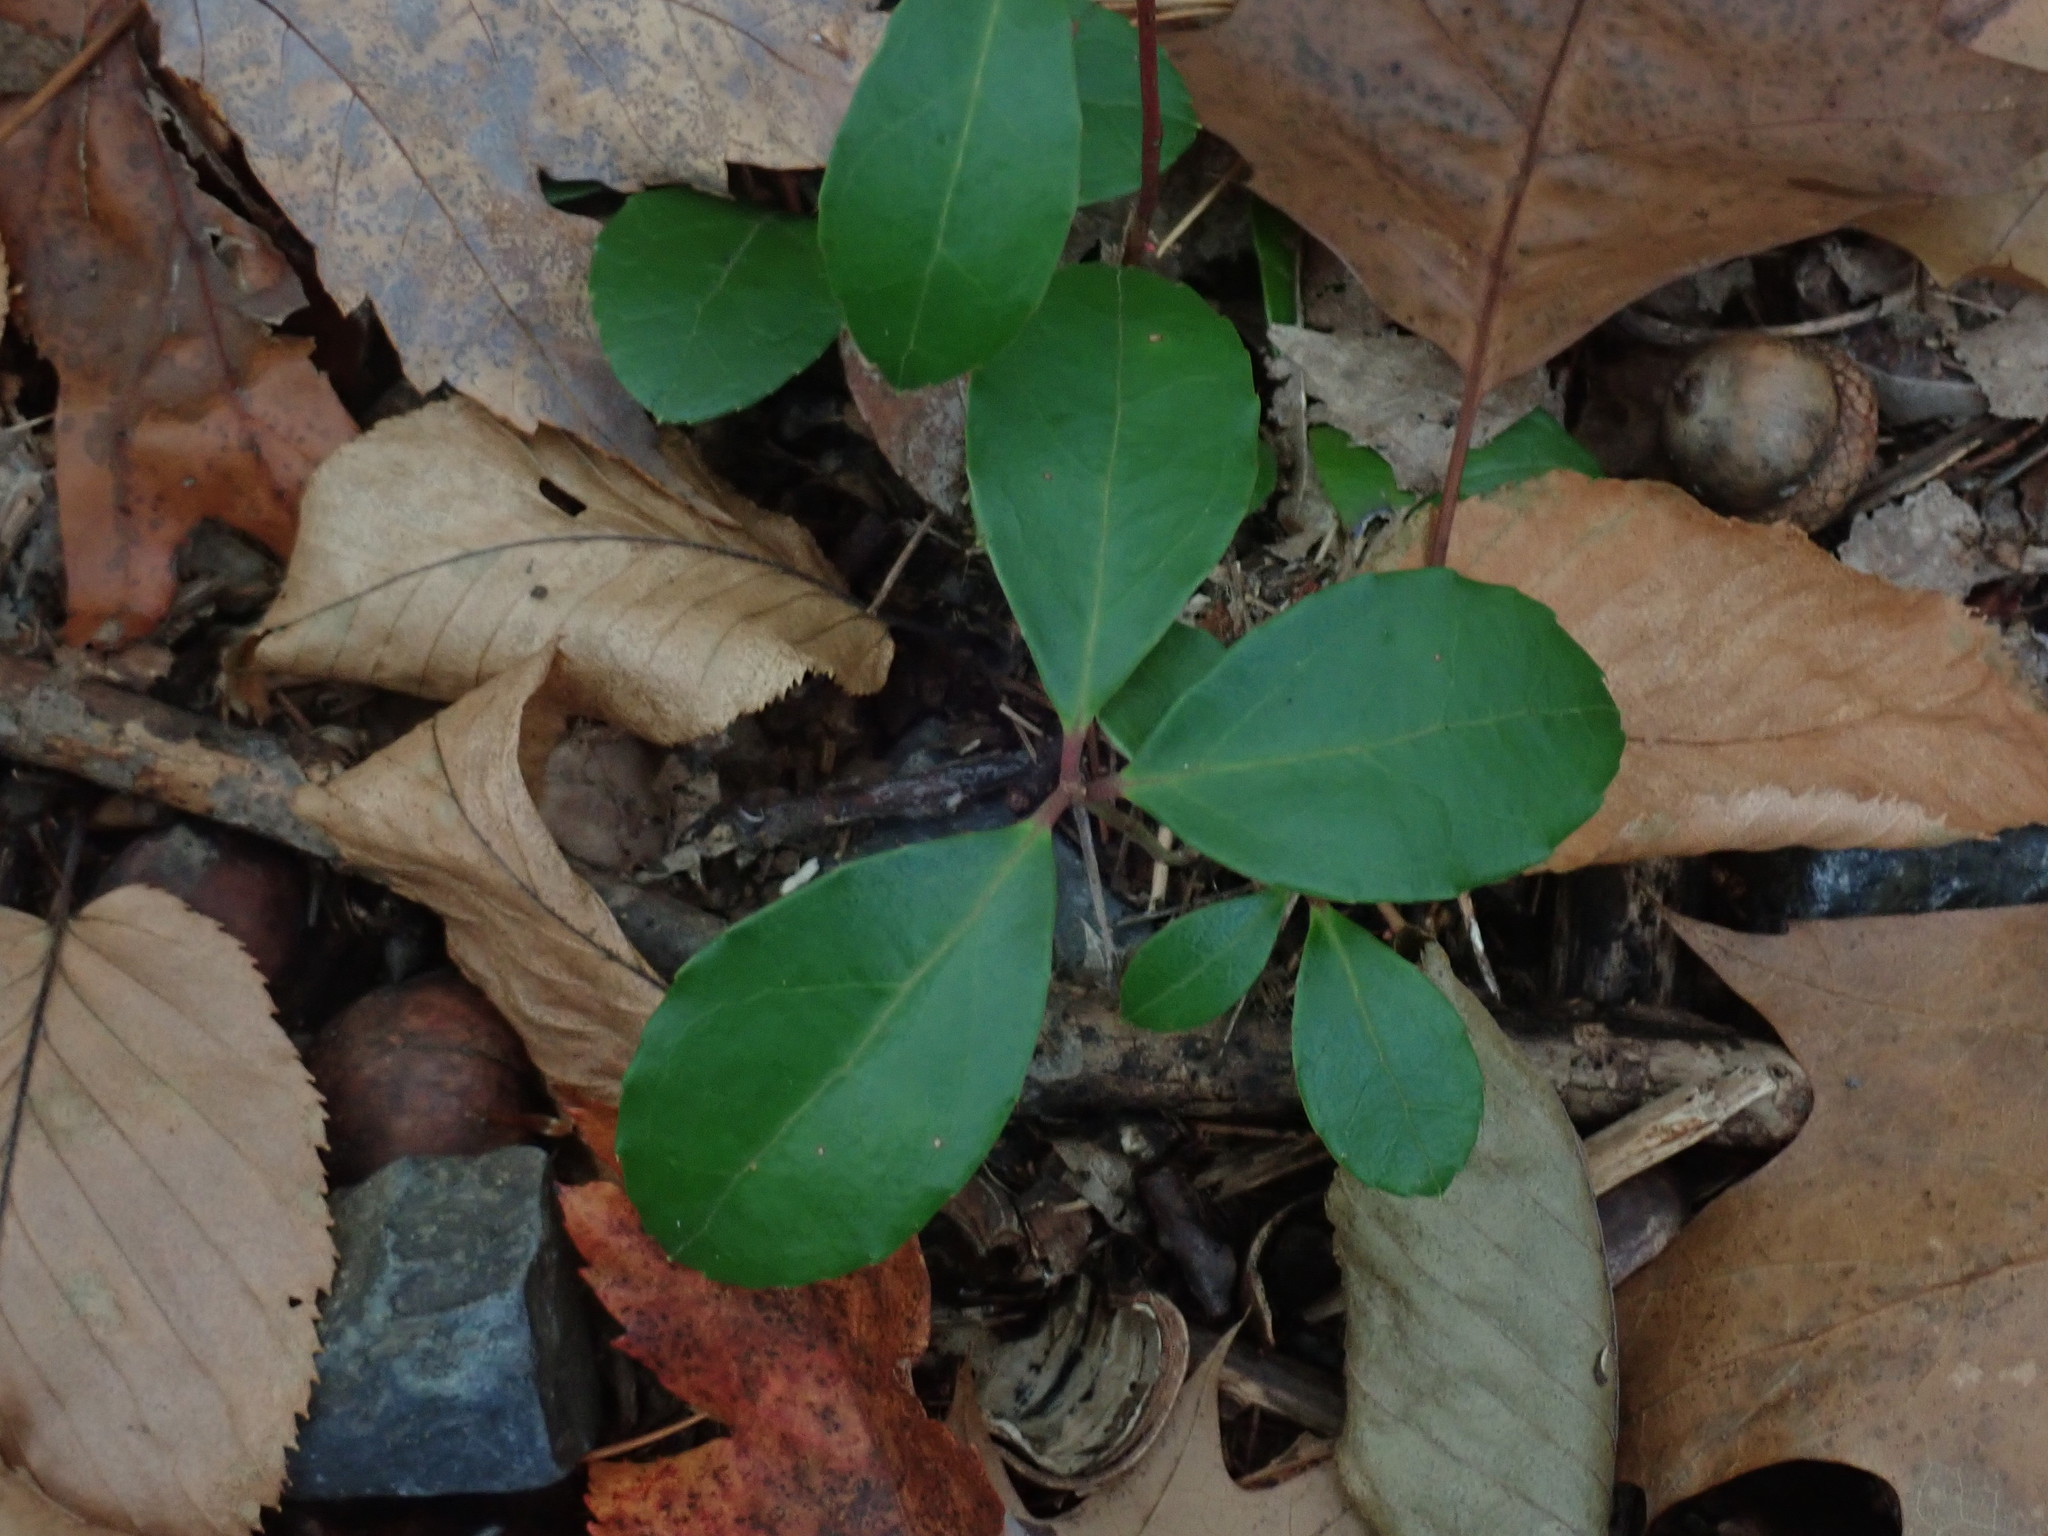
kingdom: Plantae
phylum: Tracheophyta
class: Magnoliopsida
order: Ericales
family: Ericaceae
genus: Gaultheria
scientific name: Gaultheria procumbens
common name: Checkerberry
